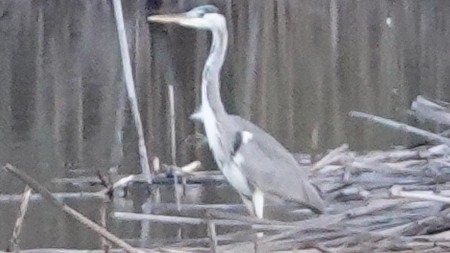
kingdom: Animalia
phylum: Chordata
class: Aves
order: Pelecaniformes
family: Ardeidae
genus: Ardea
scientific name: Ardea cinerea
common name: Grey heron
